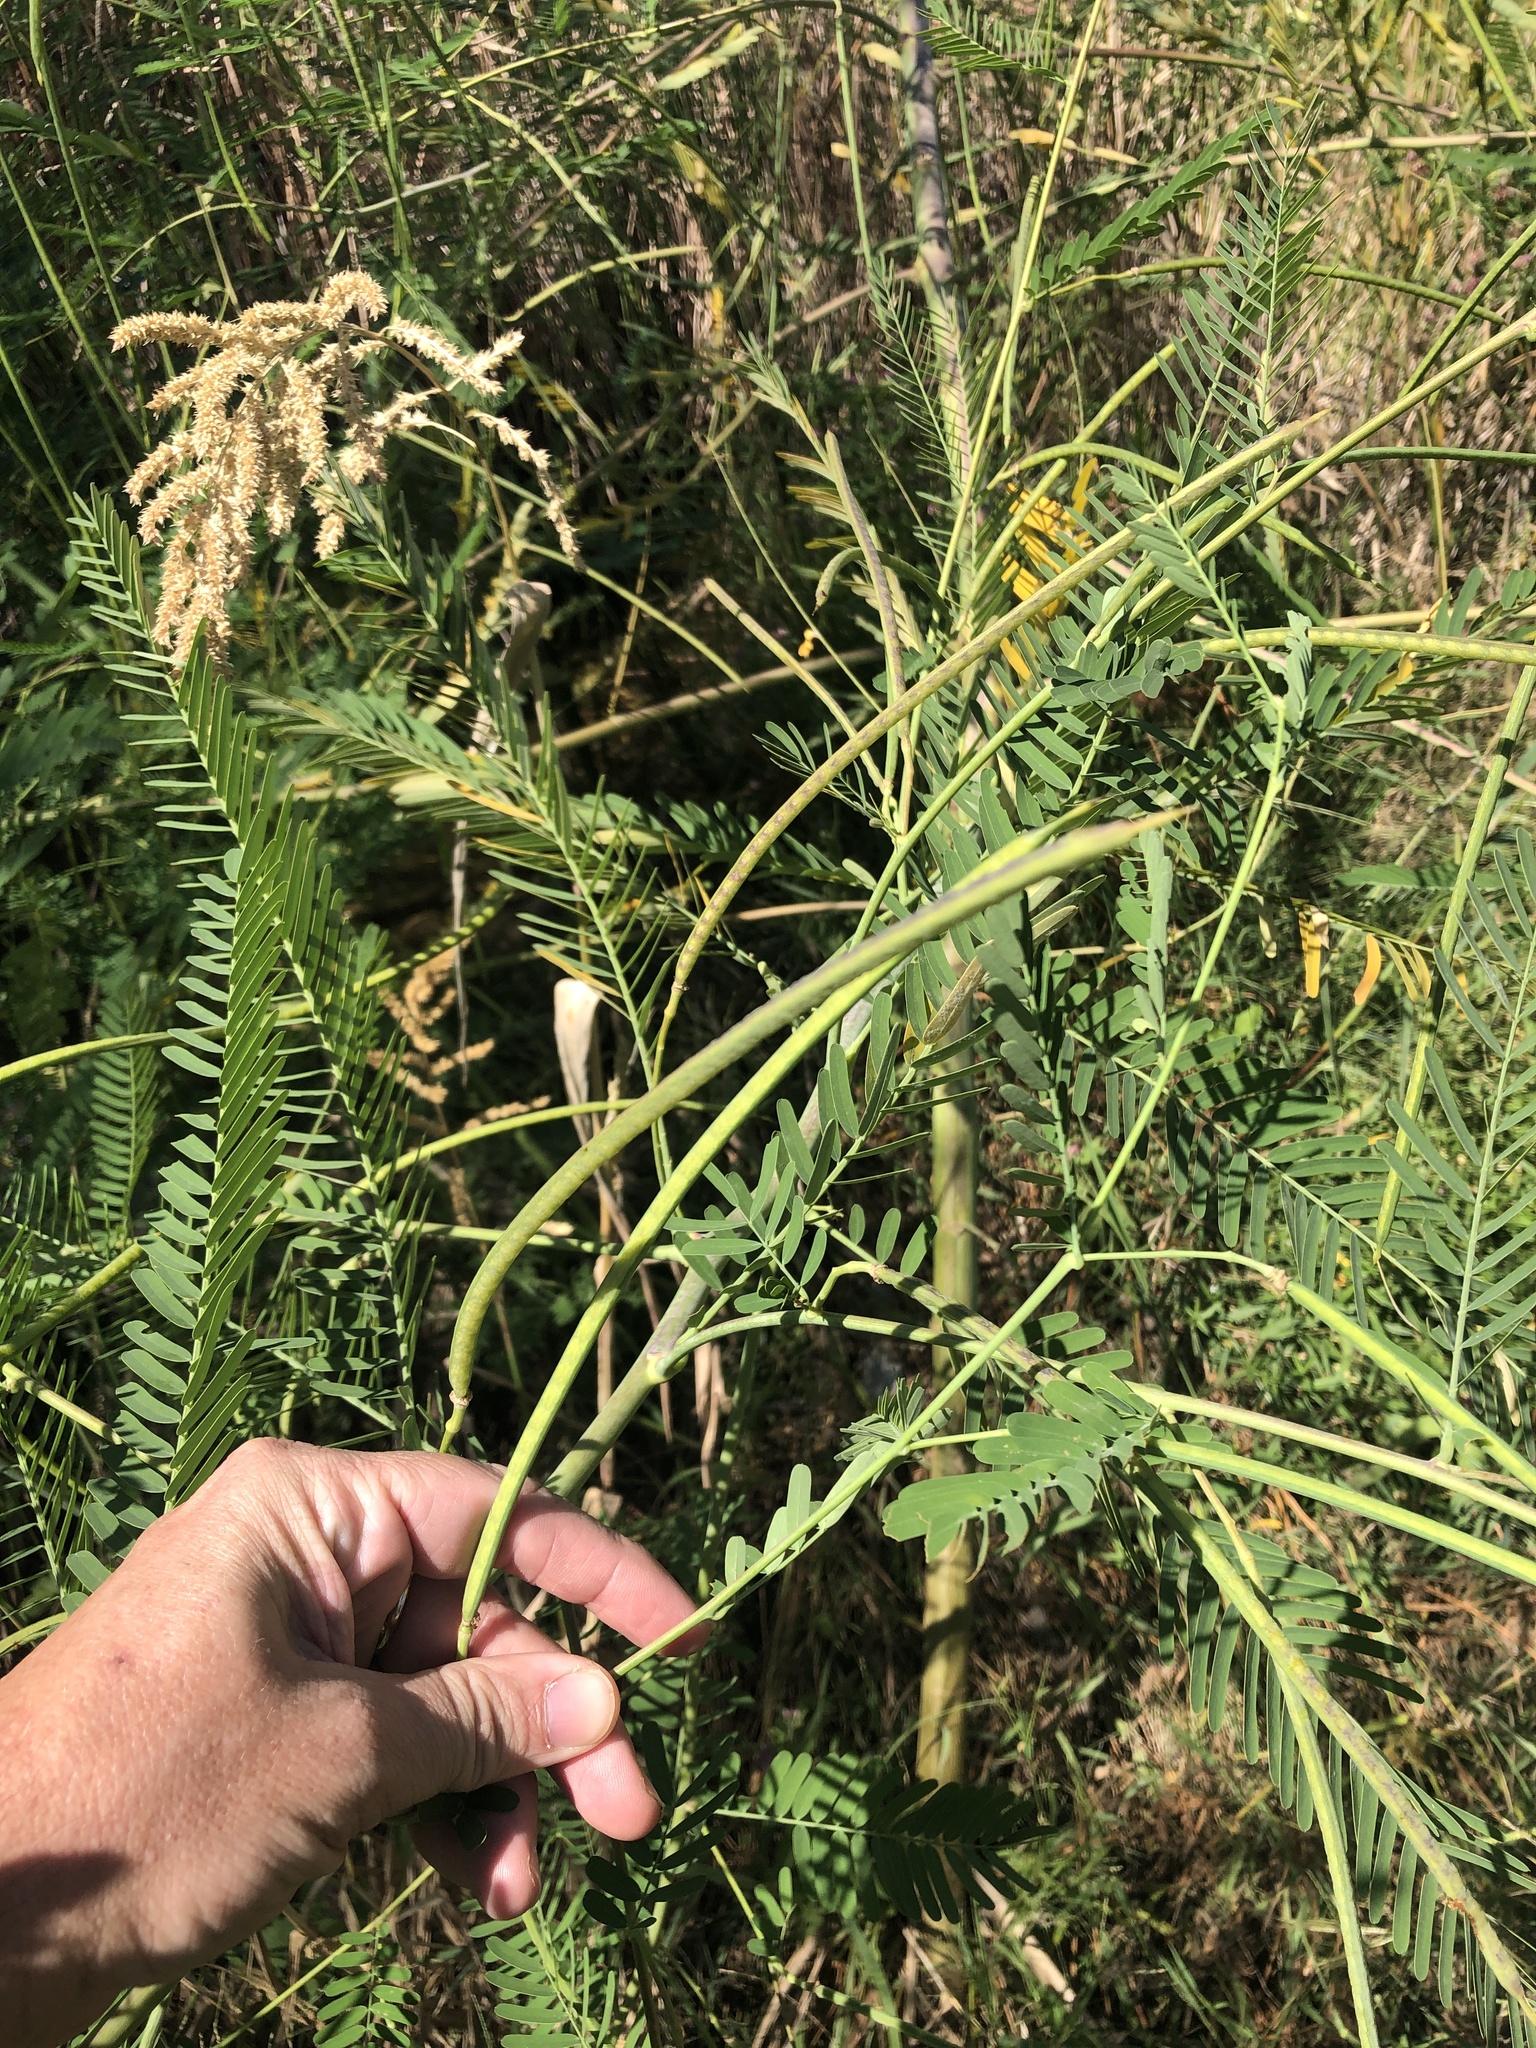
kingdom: Plantae
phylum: Tracheophyta
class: Magnoliopsida
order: Fabales
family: Fabaceae
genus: Sesbania
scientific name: Sesbania herbacea
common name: Bigpod sesbania
